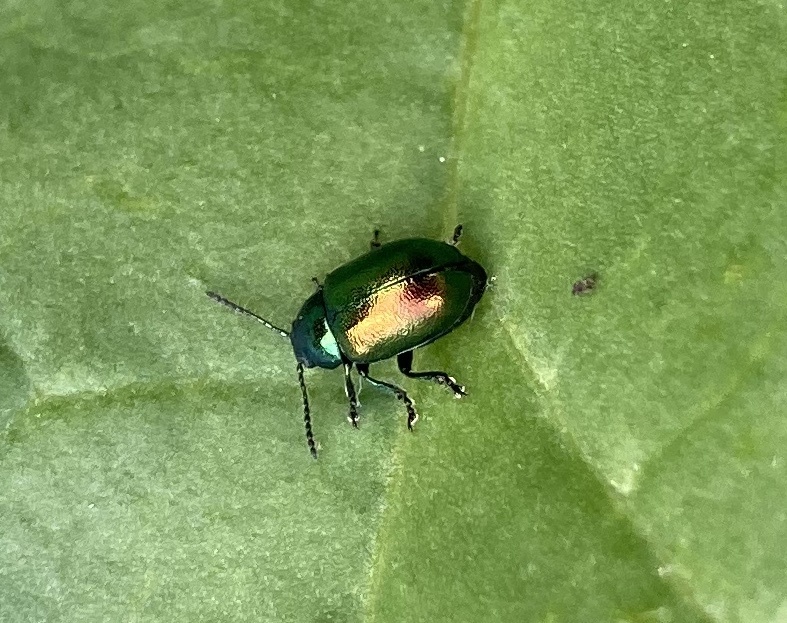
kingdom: Animalia
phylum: Arthropoda
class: Insecta
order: Coleoptera
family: Chrysomelidae
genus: Gastrophysa
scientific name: Gastrophysa viridula
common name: Green dock beetle
